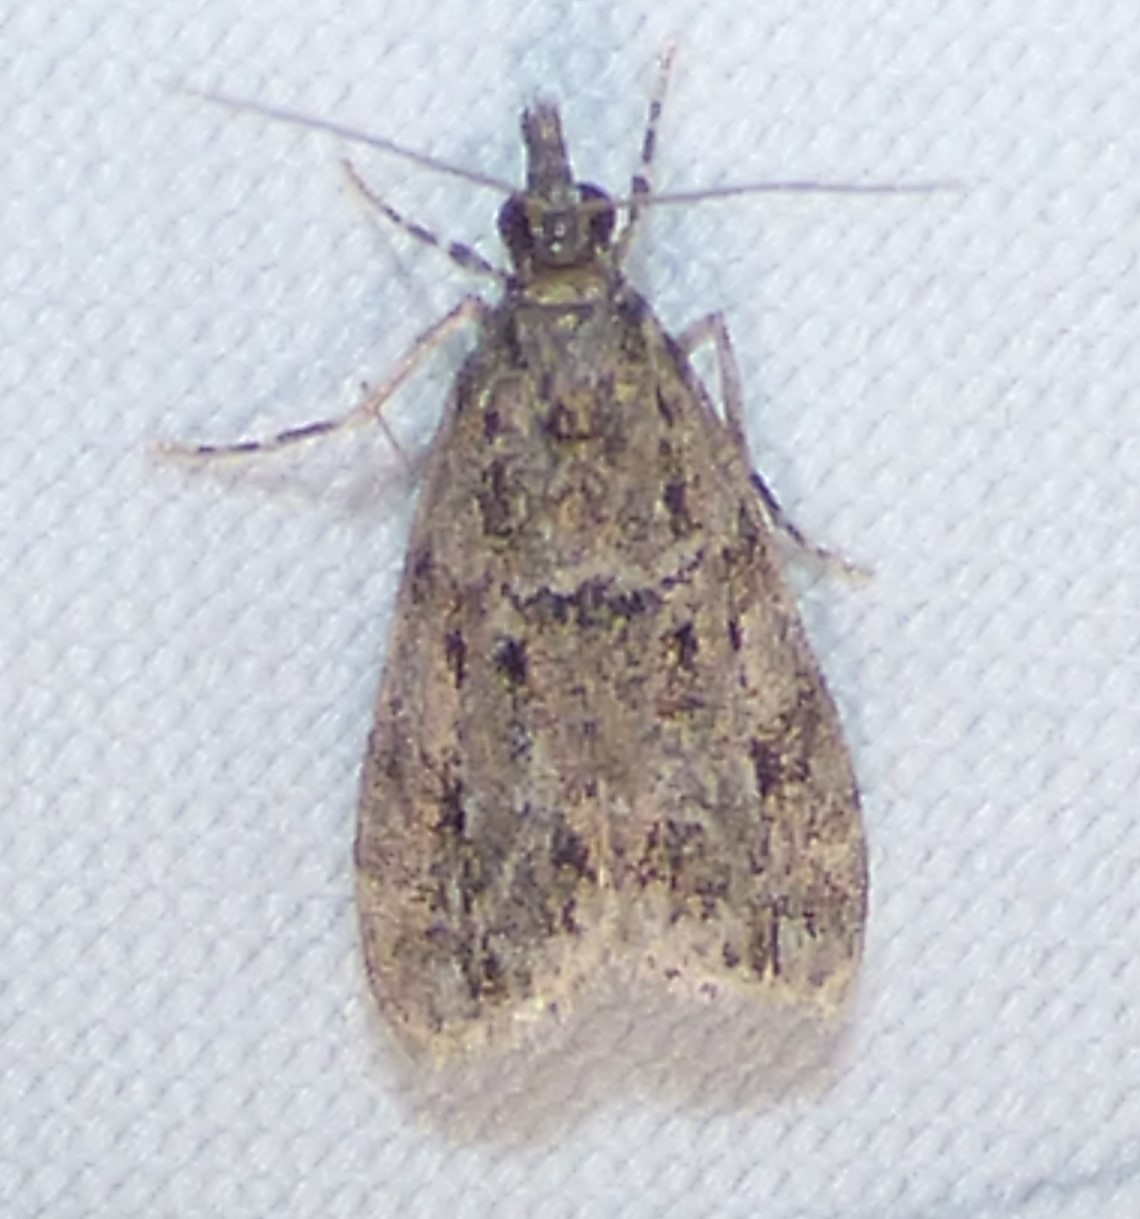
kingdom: Animalia
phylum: Arthropoda
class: Insecta
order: Lepidoptera
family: Crambidae
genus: Eudonia
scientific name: Eudonia heterosalis
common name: Mcdunnough's eudonia
